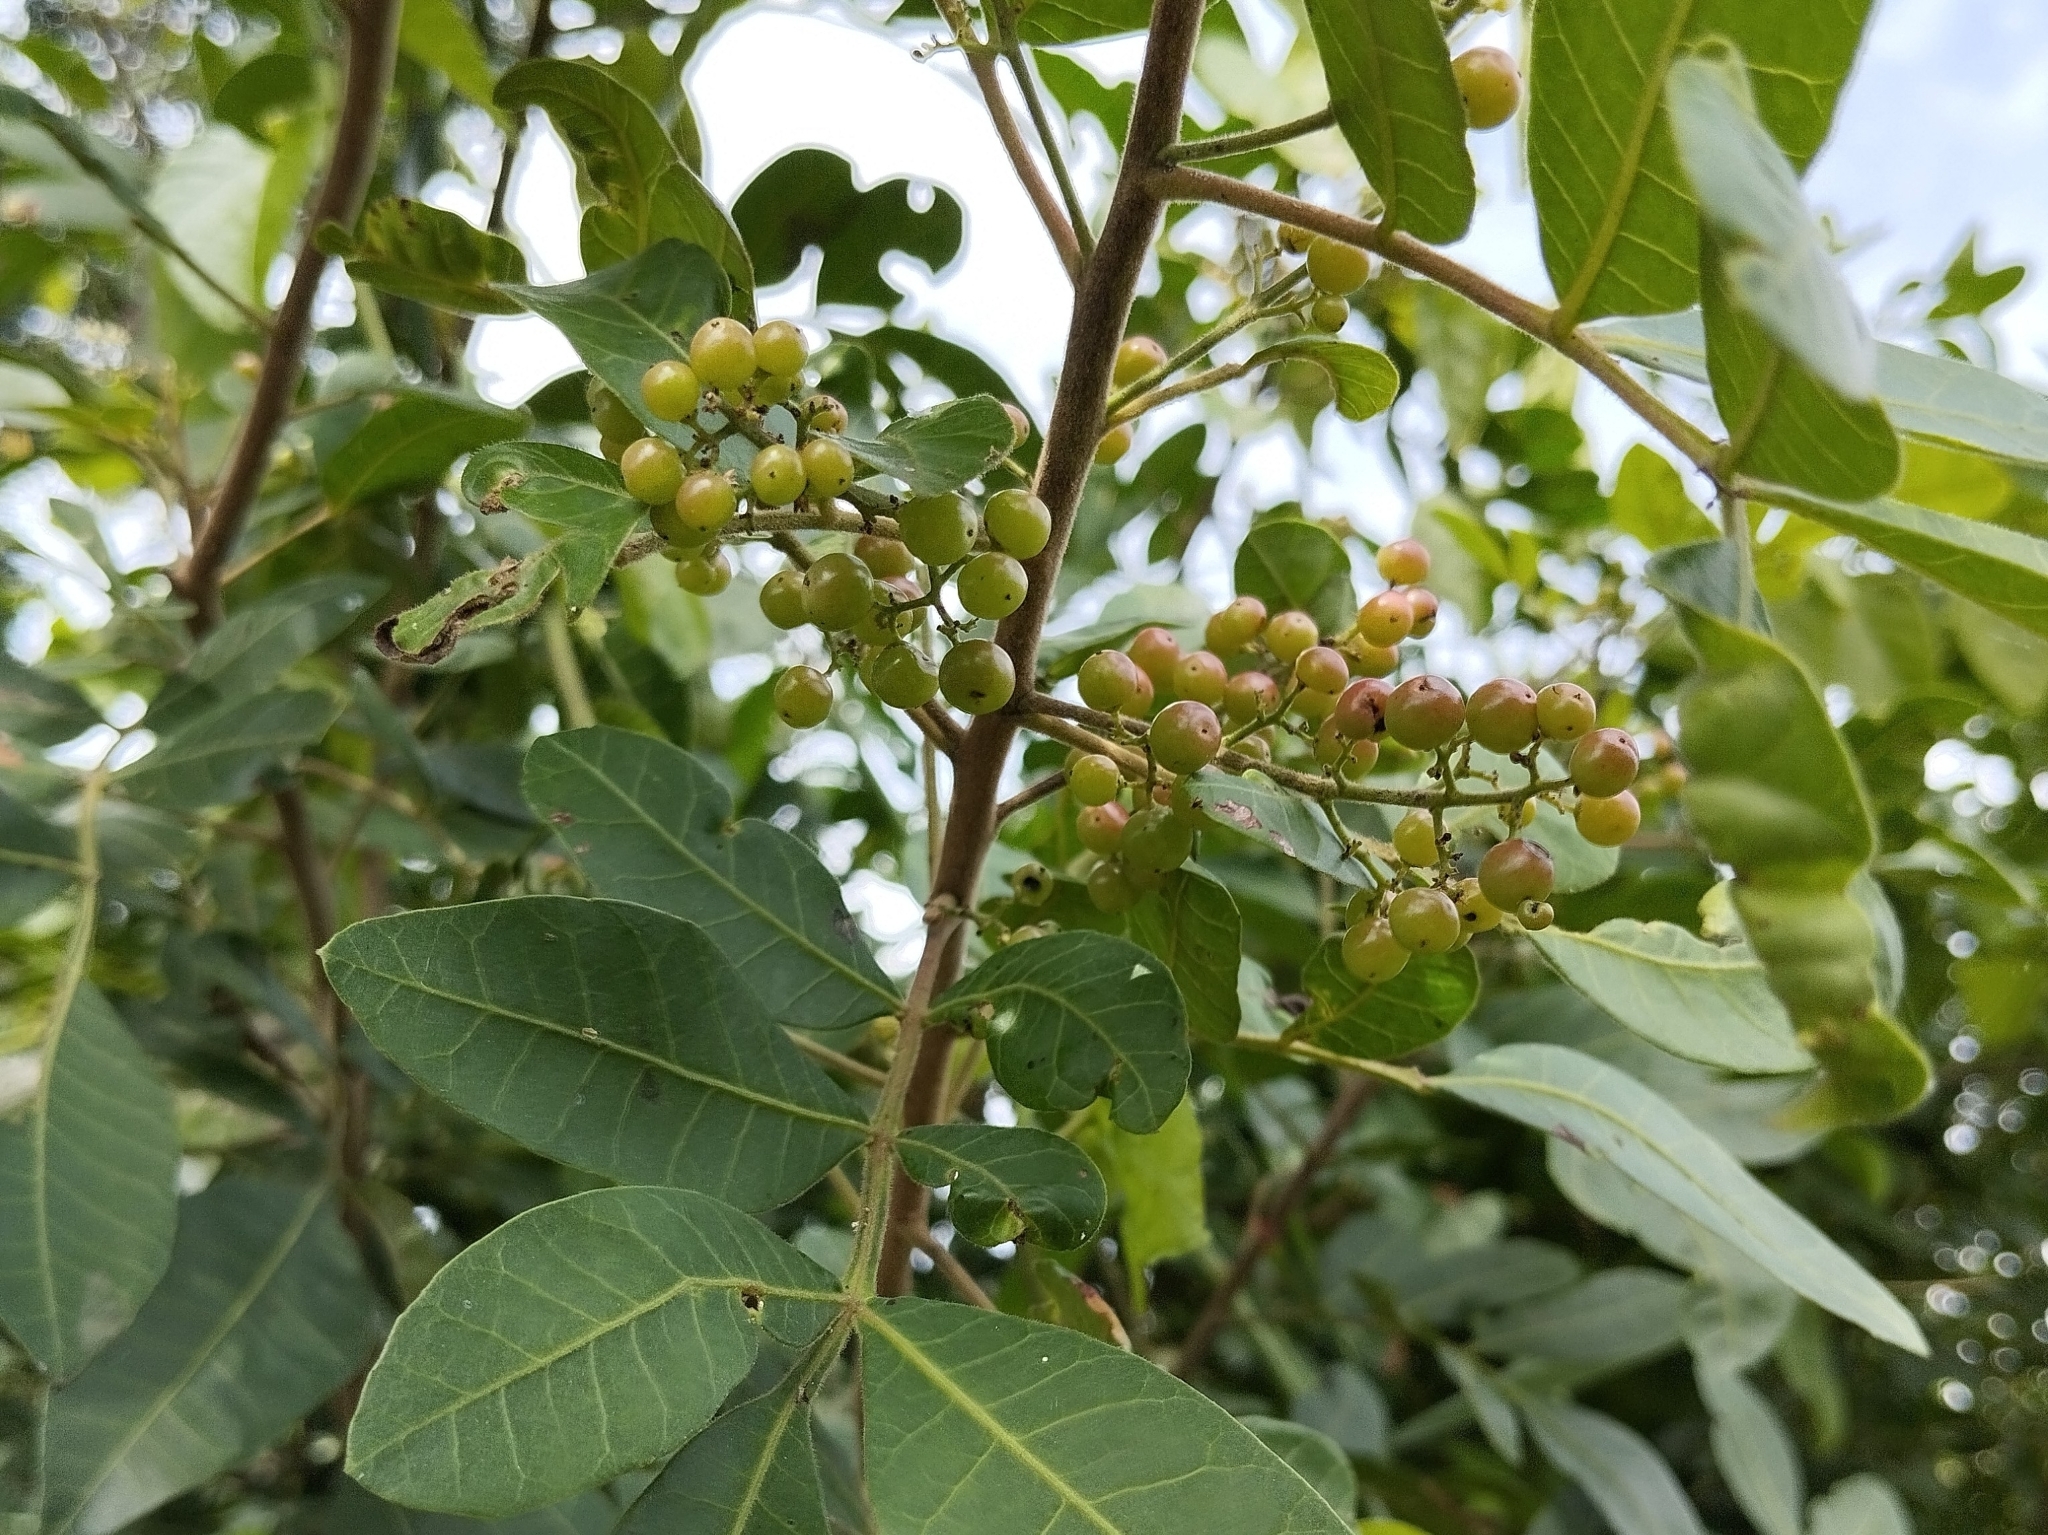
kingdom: Plantae
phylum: Tracheophyta
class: Magnoliopsida
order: Sapindales
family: Anacardiaceae
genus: Schinus
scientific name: Schinus terebinthifolia
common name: Brazilian peppertree
